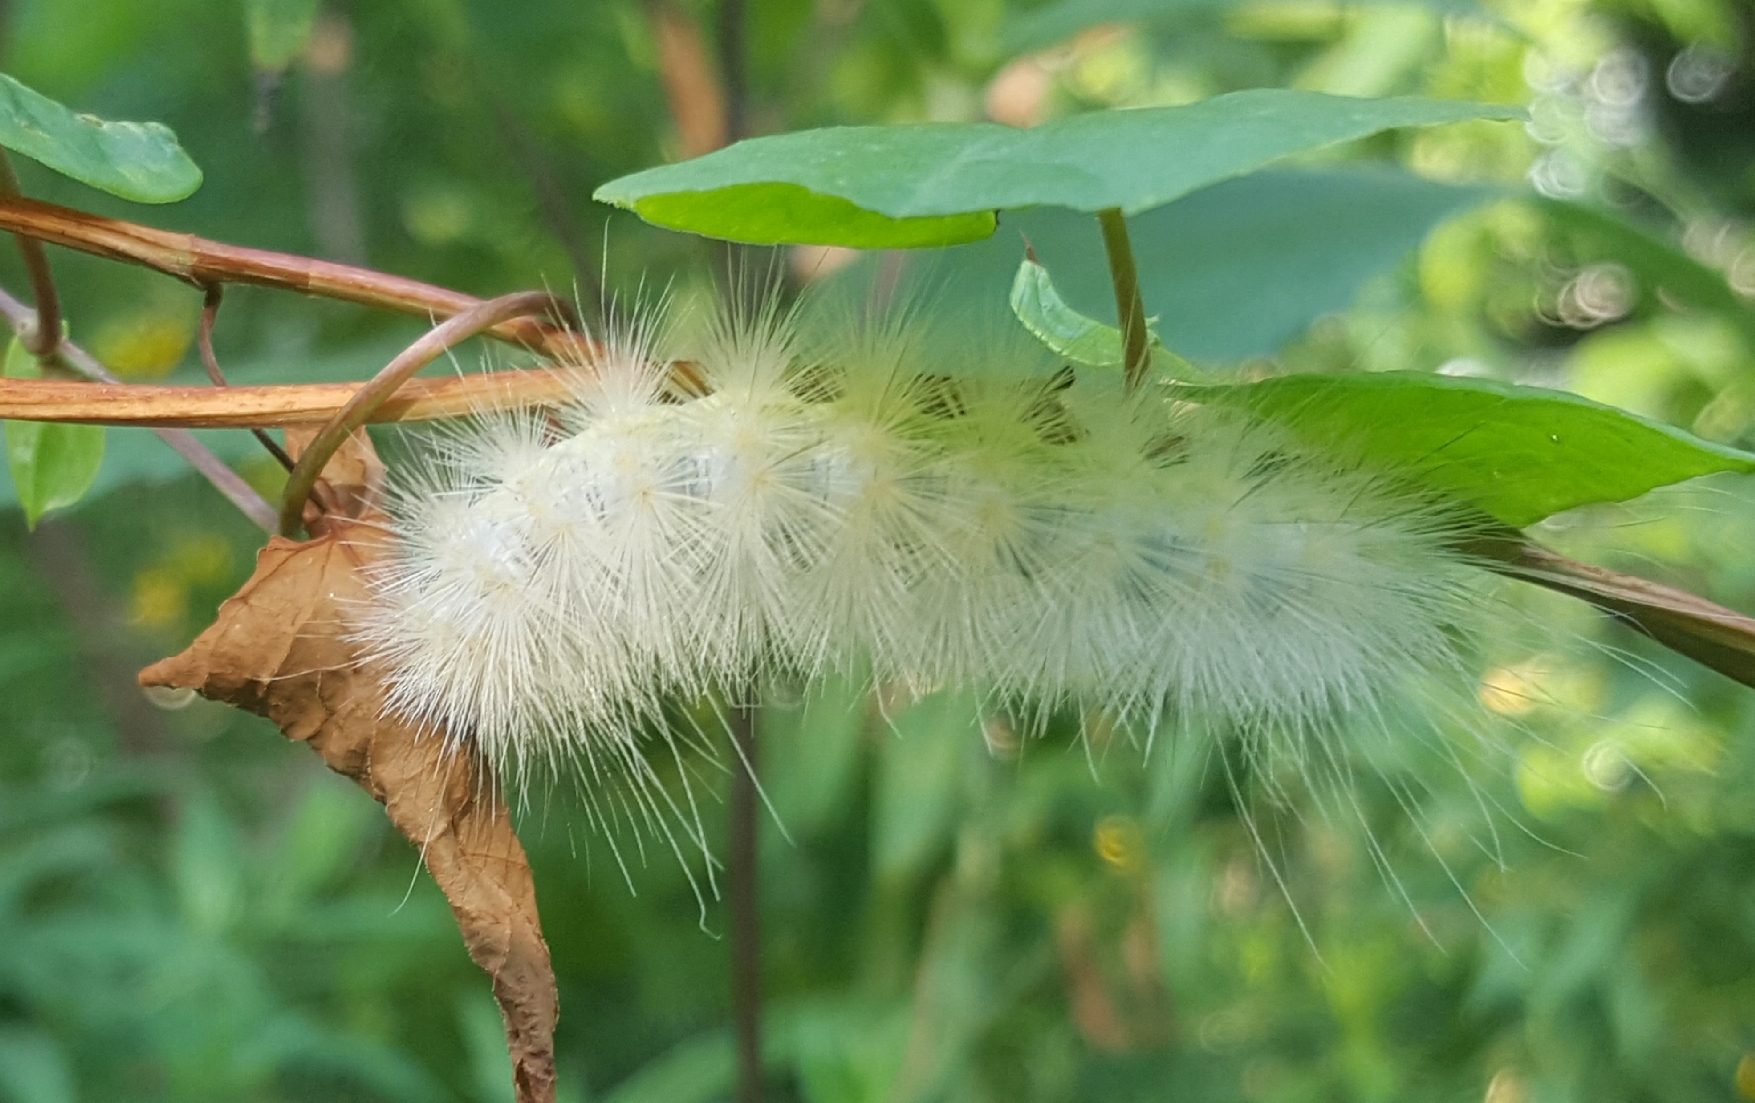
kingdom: Animalia
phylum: Arthropoda
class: Insecta
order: Lepidoptera
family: Erebidae
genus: Spilosoma
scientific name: Spilosoma virginica
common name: Virginia tiger moth
